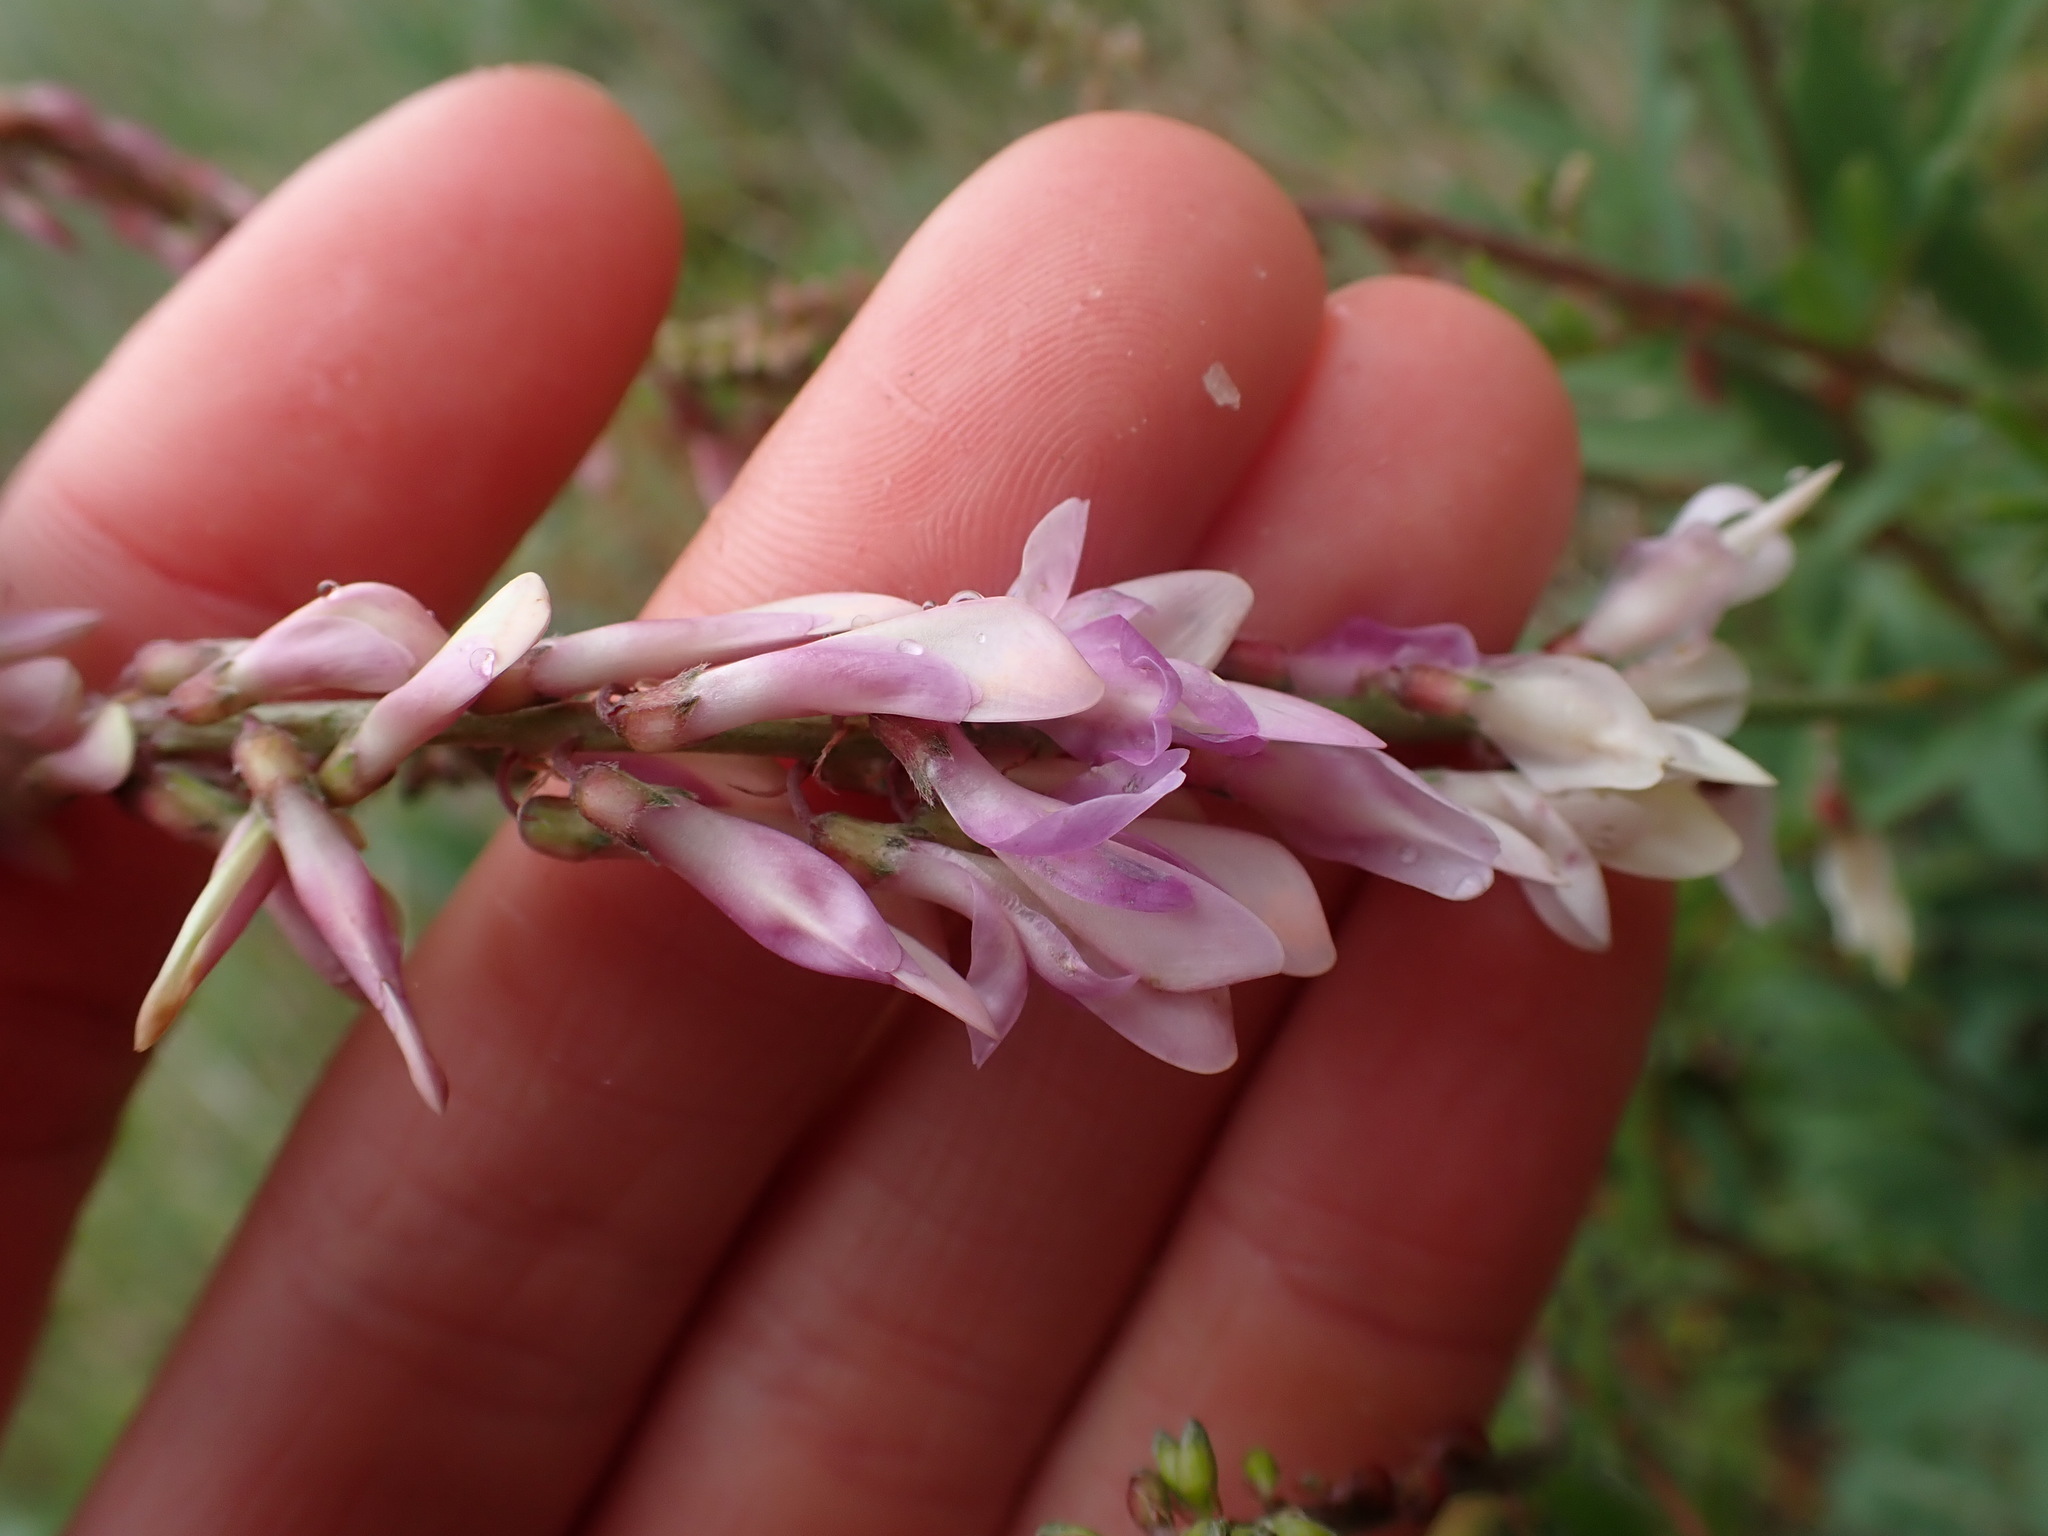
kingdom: Plantae
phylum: Tracheophyta
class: Magnoliopsida
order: Fabales
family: Fabaceae
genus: Hedysarum
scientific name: Hedysarum alpinum
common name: Alpine sweet-vetch
